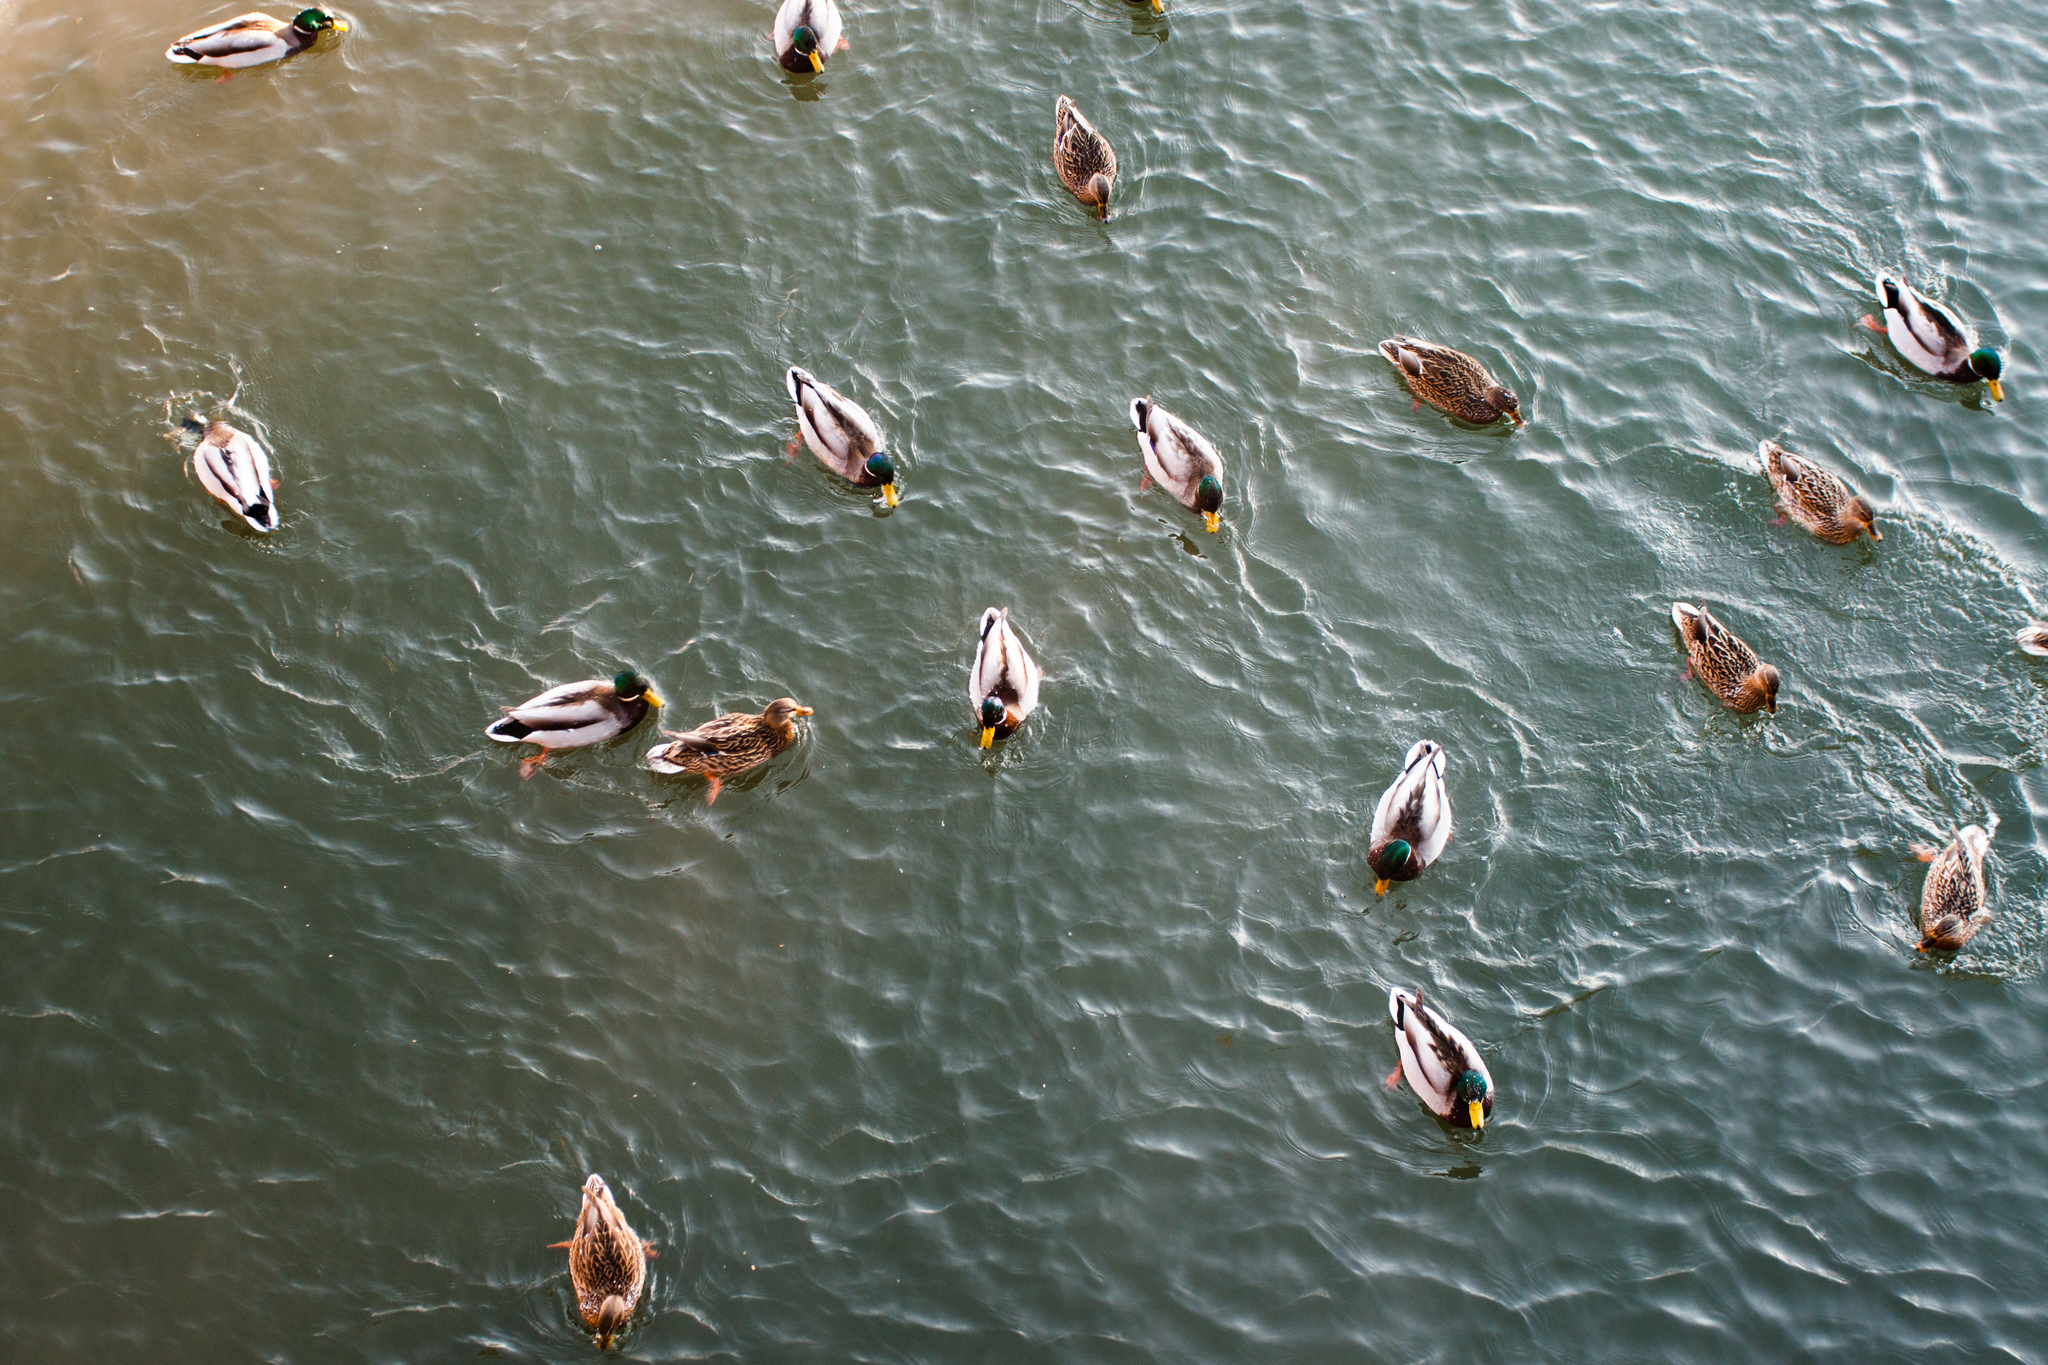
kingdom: Animalia
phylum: Chordata
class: Aves
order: Anseriformes
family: Anatidae
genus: Anas
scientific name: Anas platyrhynchos
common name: Mallard
